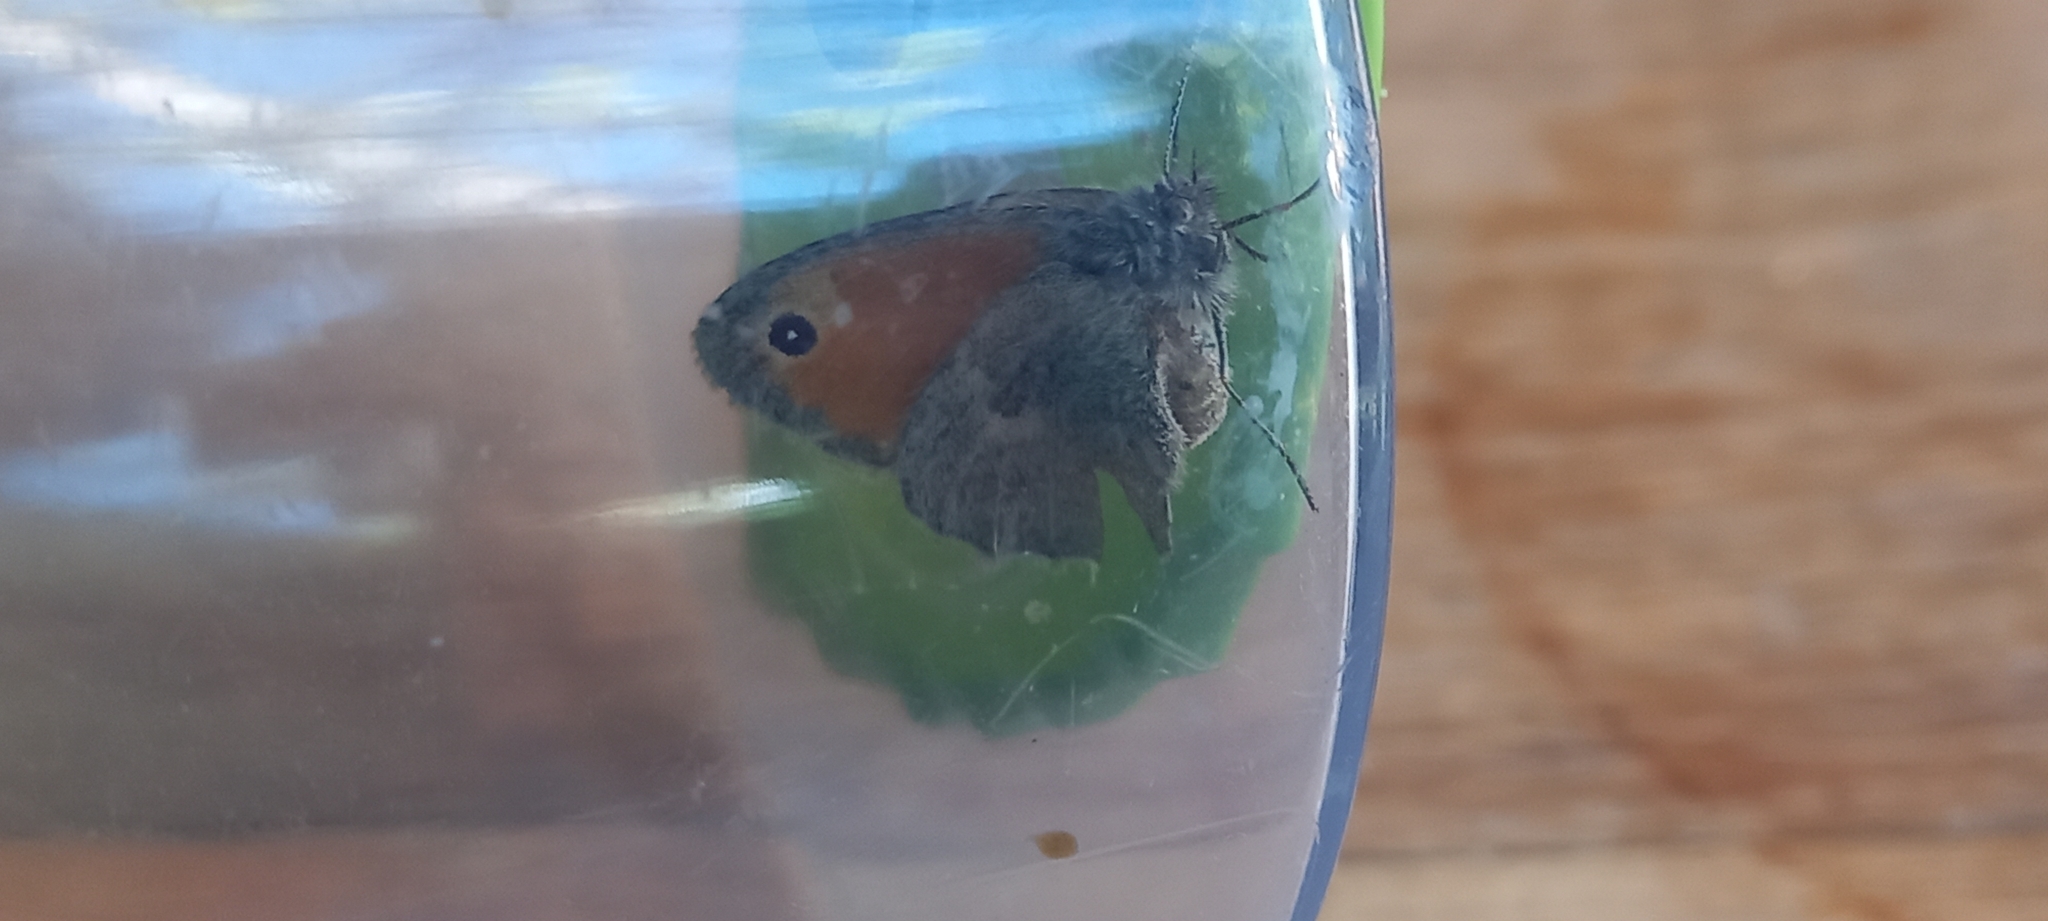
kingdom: Animalia
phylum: Arthropoda
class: Insecta
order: Lepidoptera
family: Nymphalidae
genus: Coenonympha
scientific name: Coenonympha pamphilus
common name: Small heath
